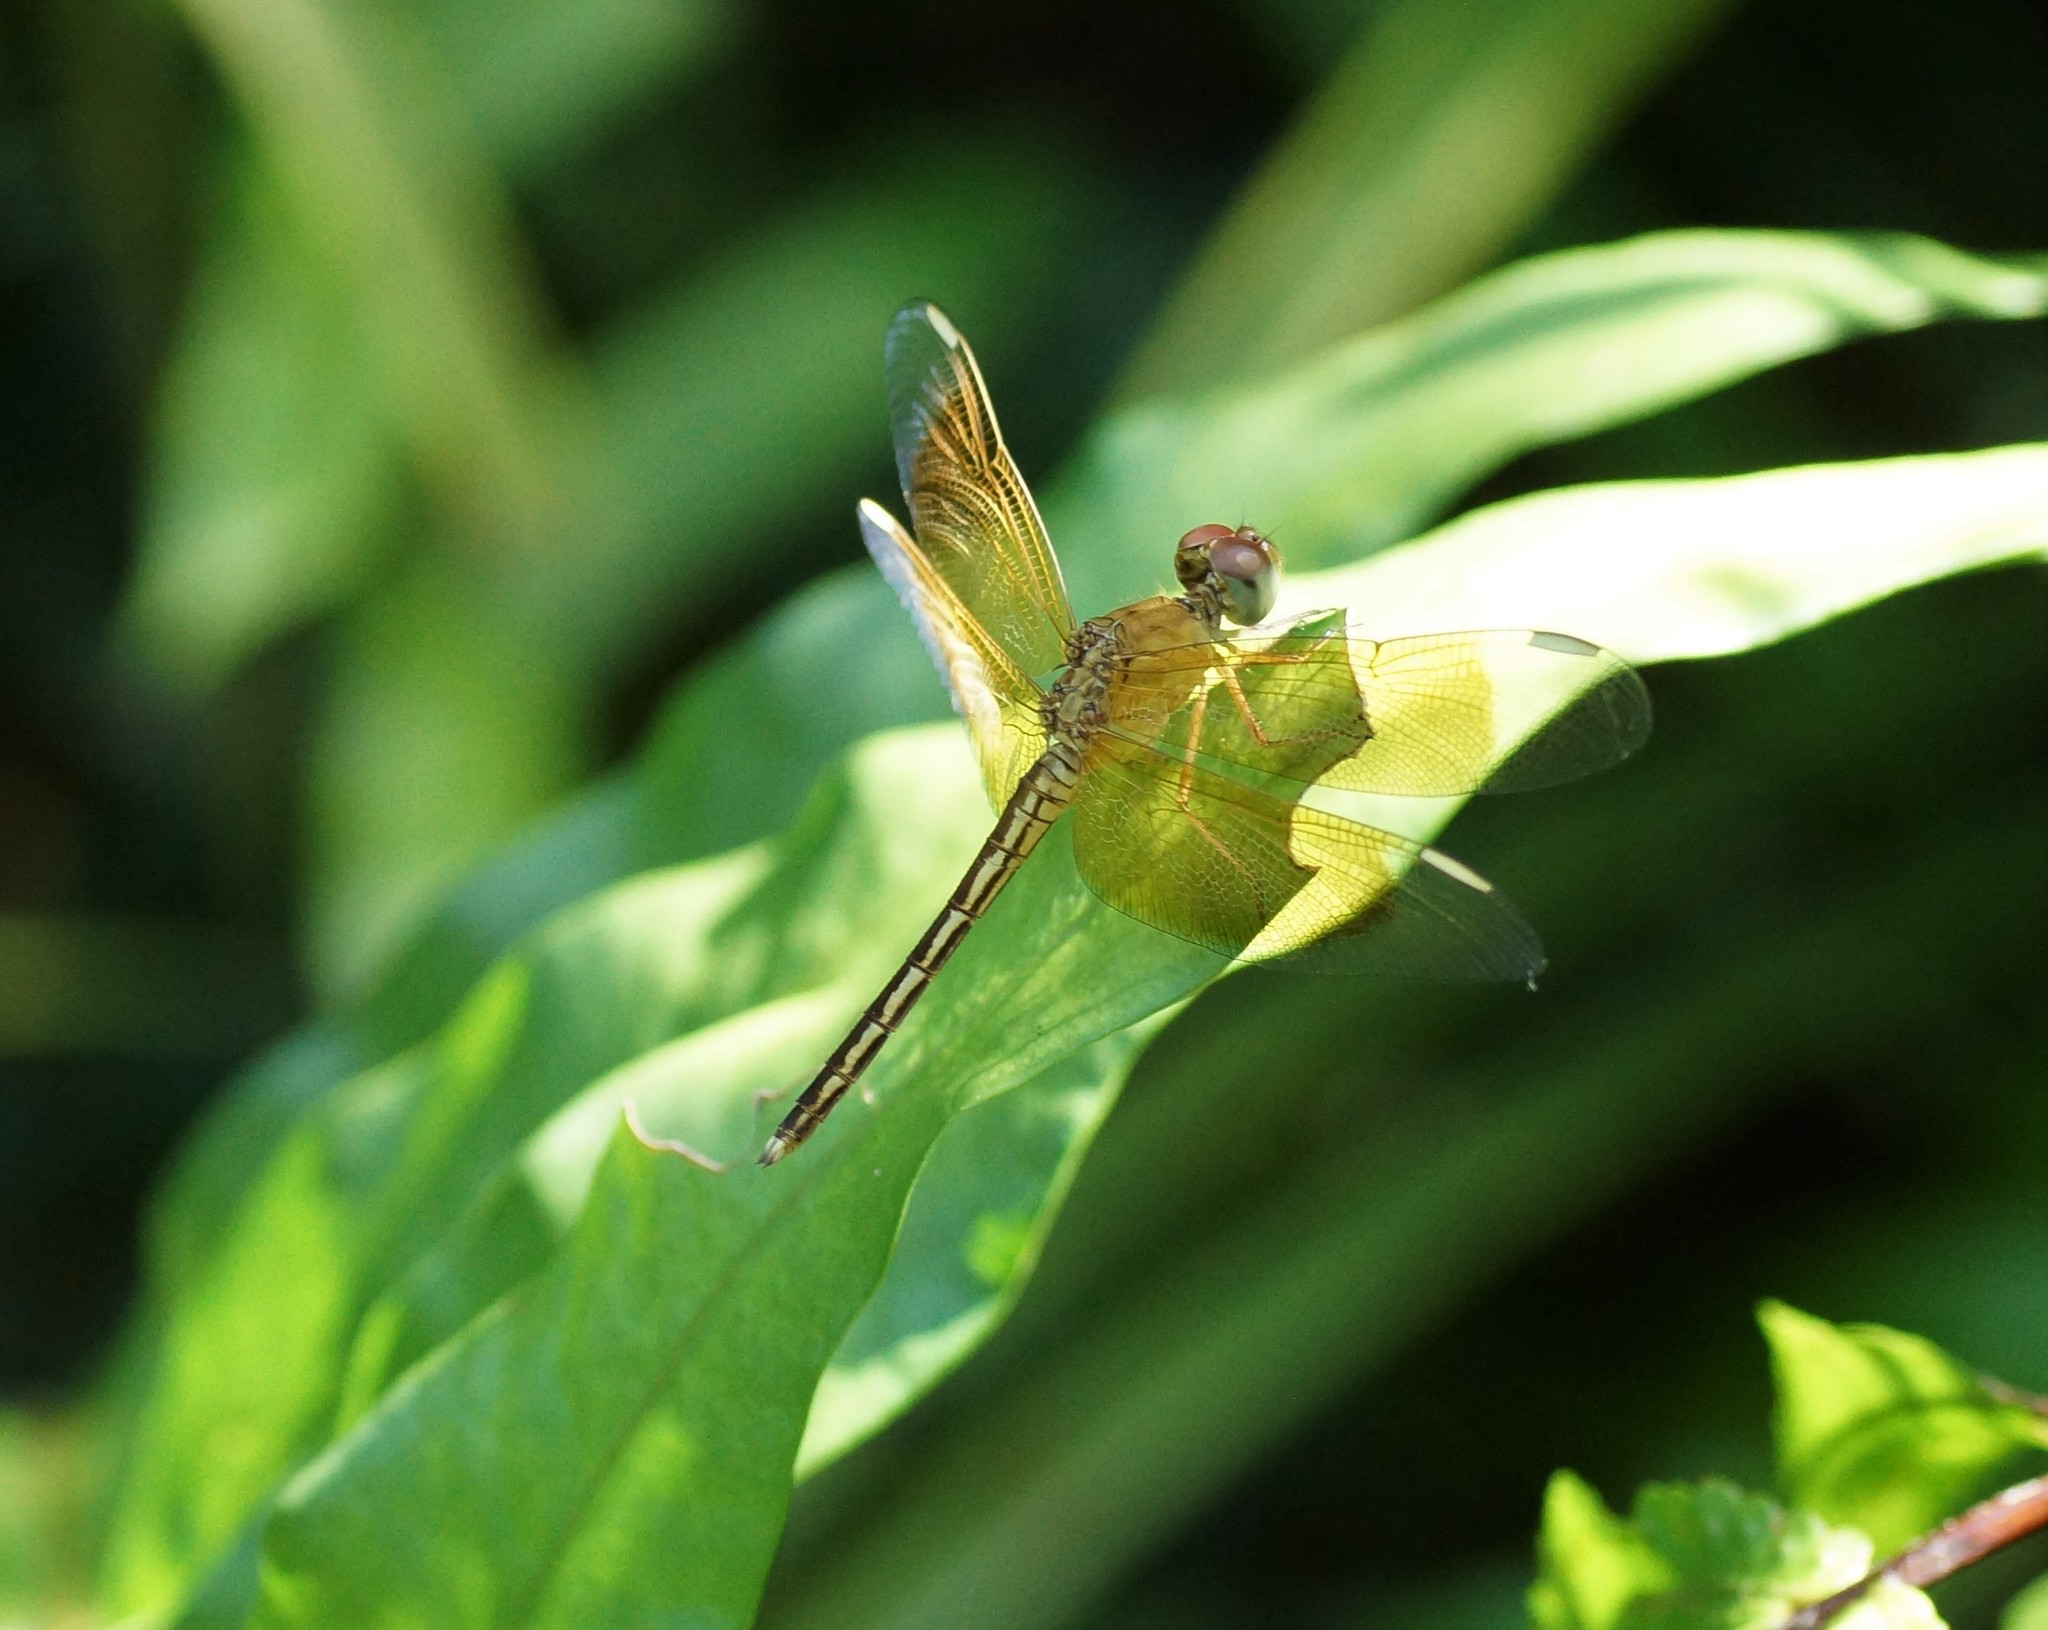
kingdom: Animalia
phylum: Arthropoda
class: Insecta
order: Odonata
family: Libellulidae
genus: Neurothemis
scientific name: Neurothemis stigmatizans
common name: Painted grasshawk
